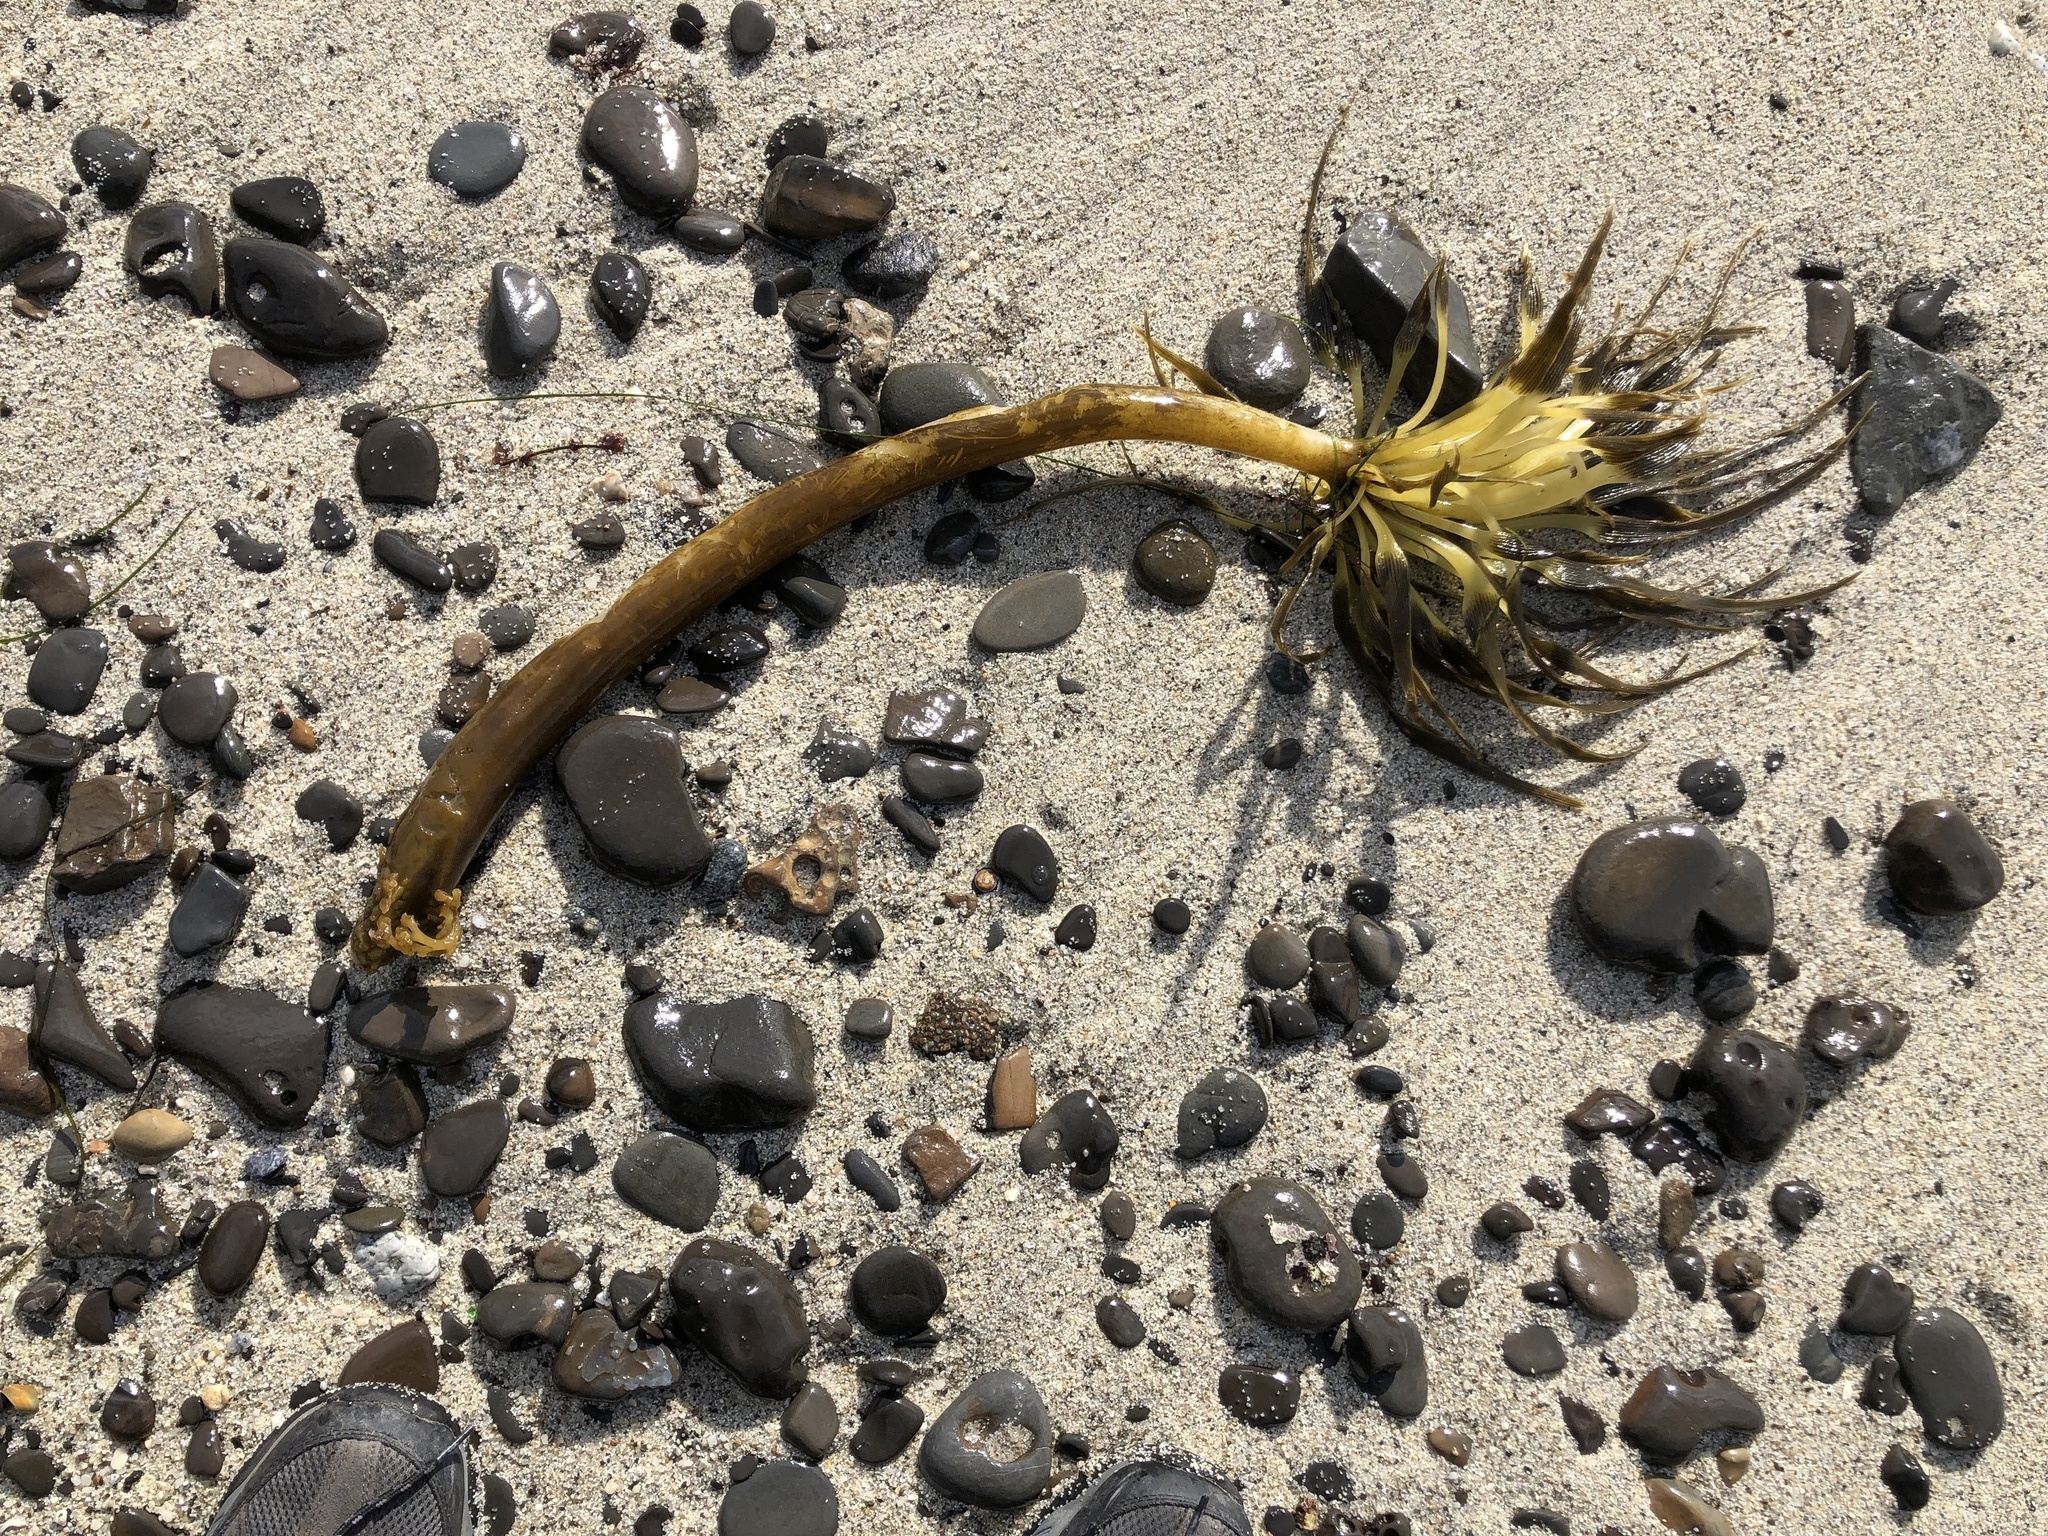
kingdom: Chromista
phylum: Ochrophyta
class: Phaeophyceae
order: Laminariales
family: Laminariaceae
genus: Postelsia
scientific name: Postelsia palmiformis
